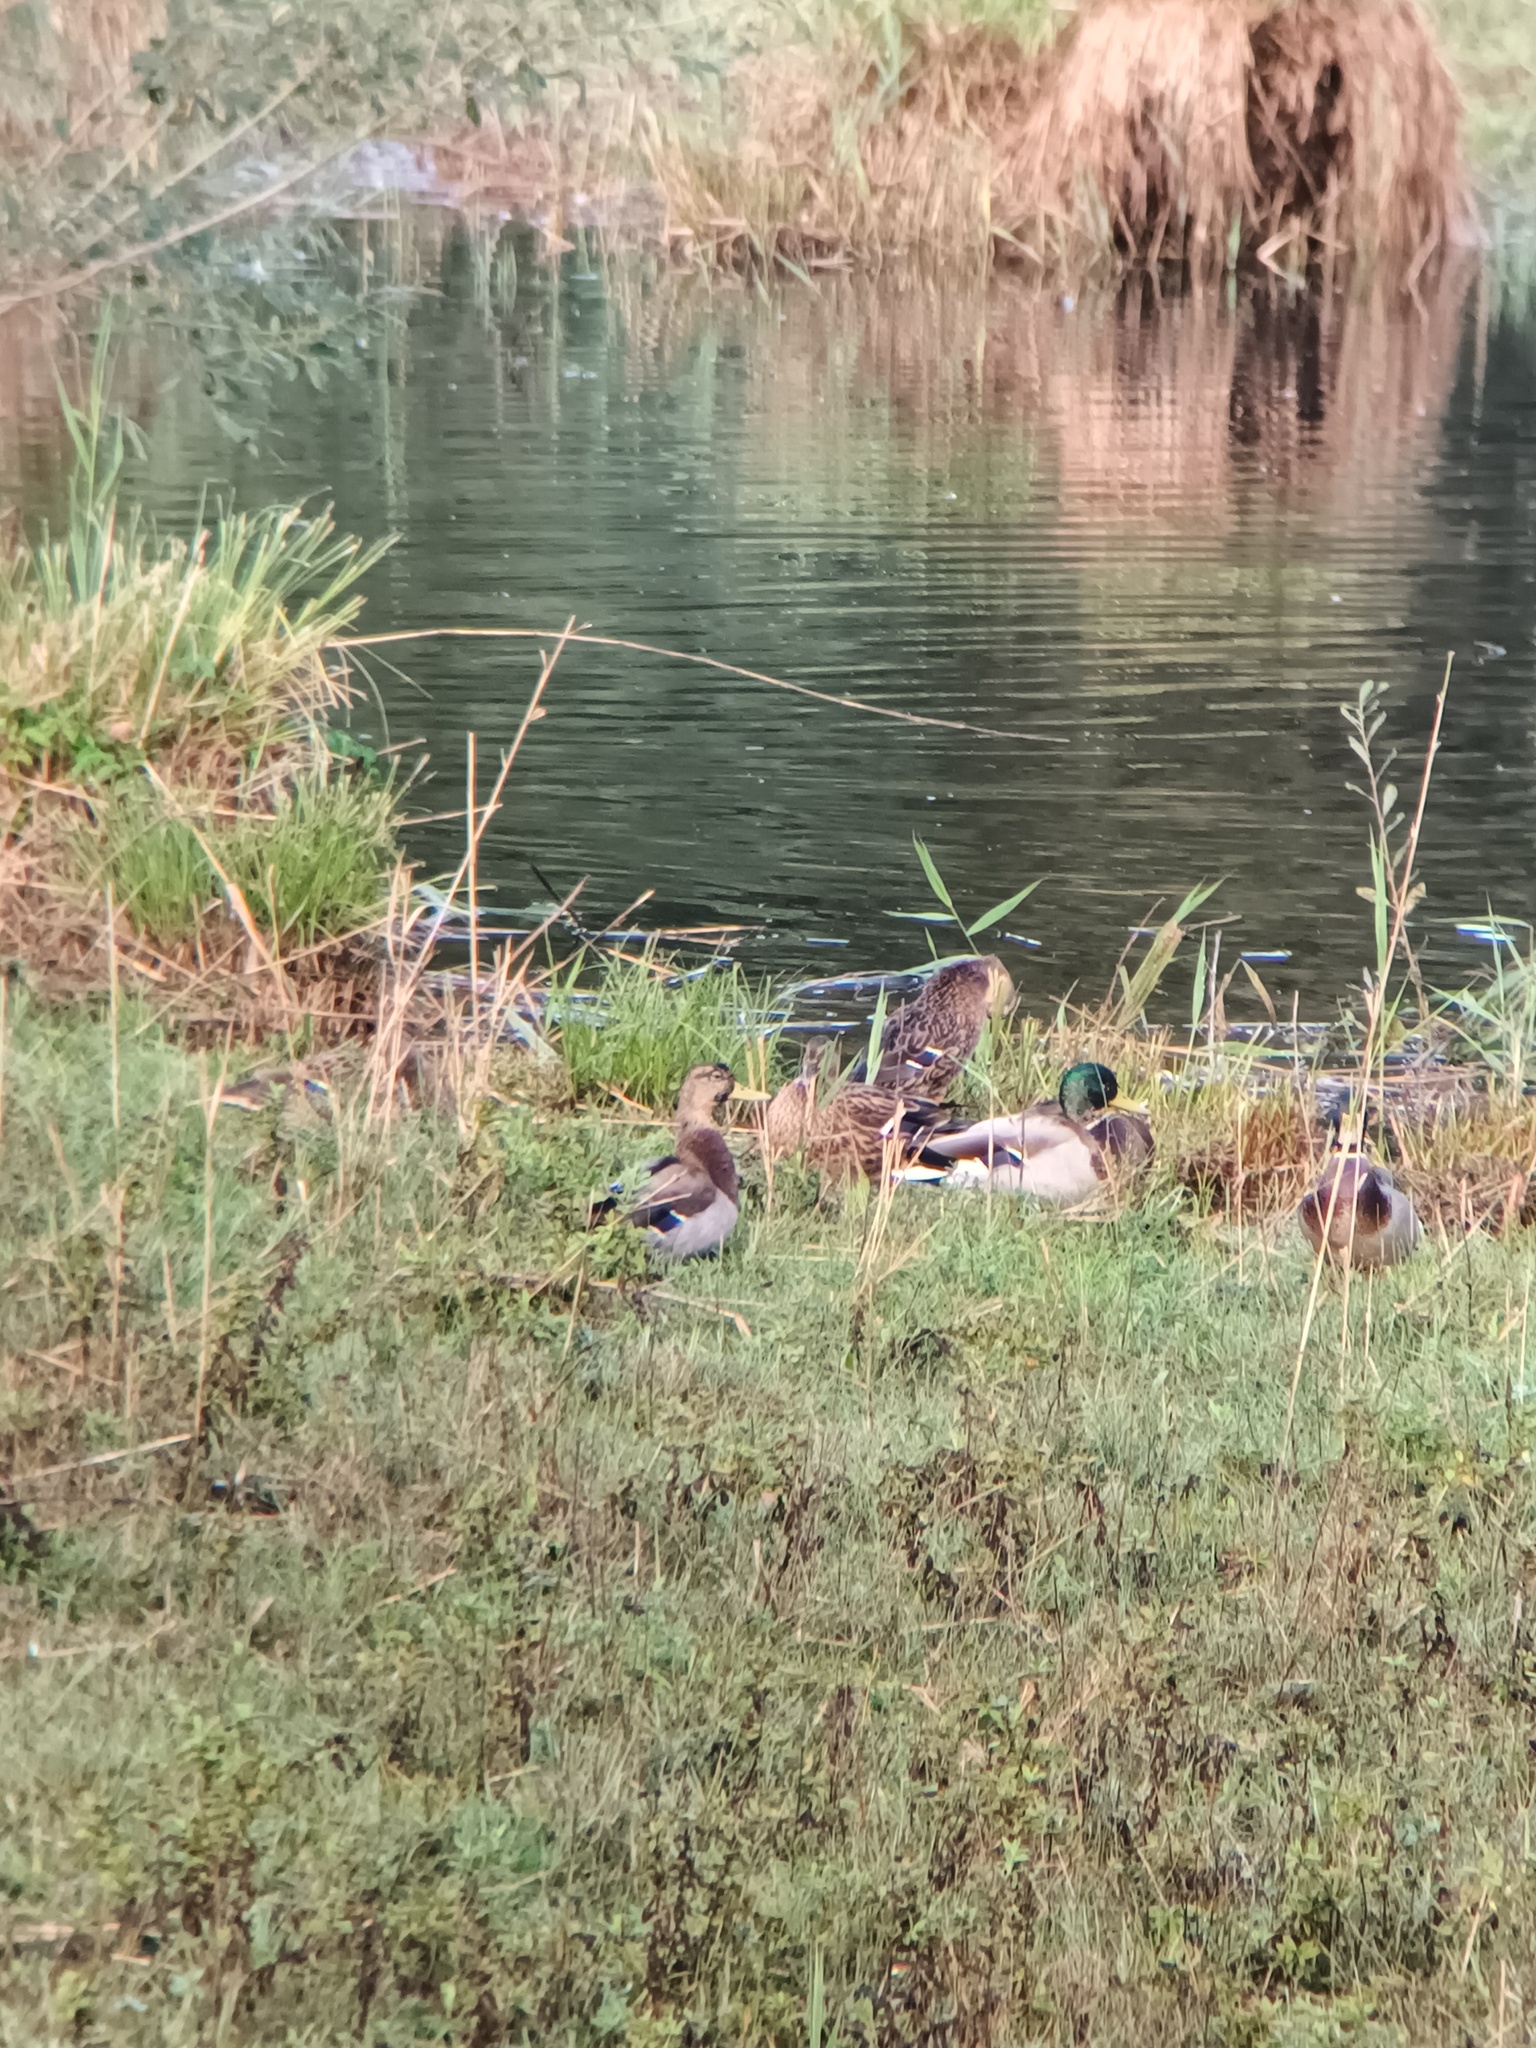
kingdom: Animalia
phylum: Chordata
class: Aves
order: Anseriformes
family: Anatidae
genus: Anas
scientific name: Anas platyrhynchos
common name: Mallard
